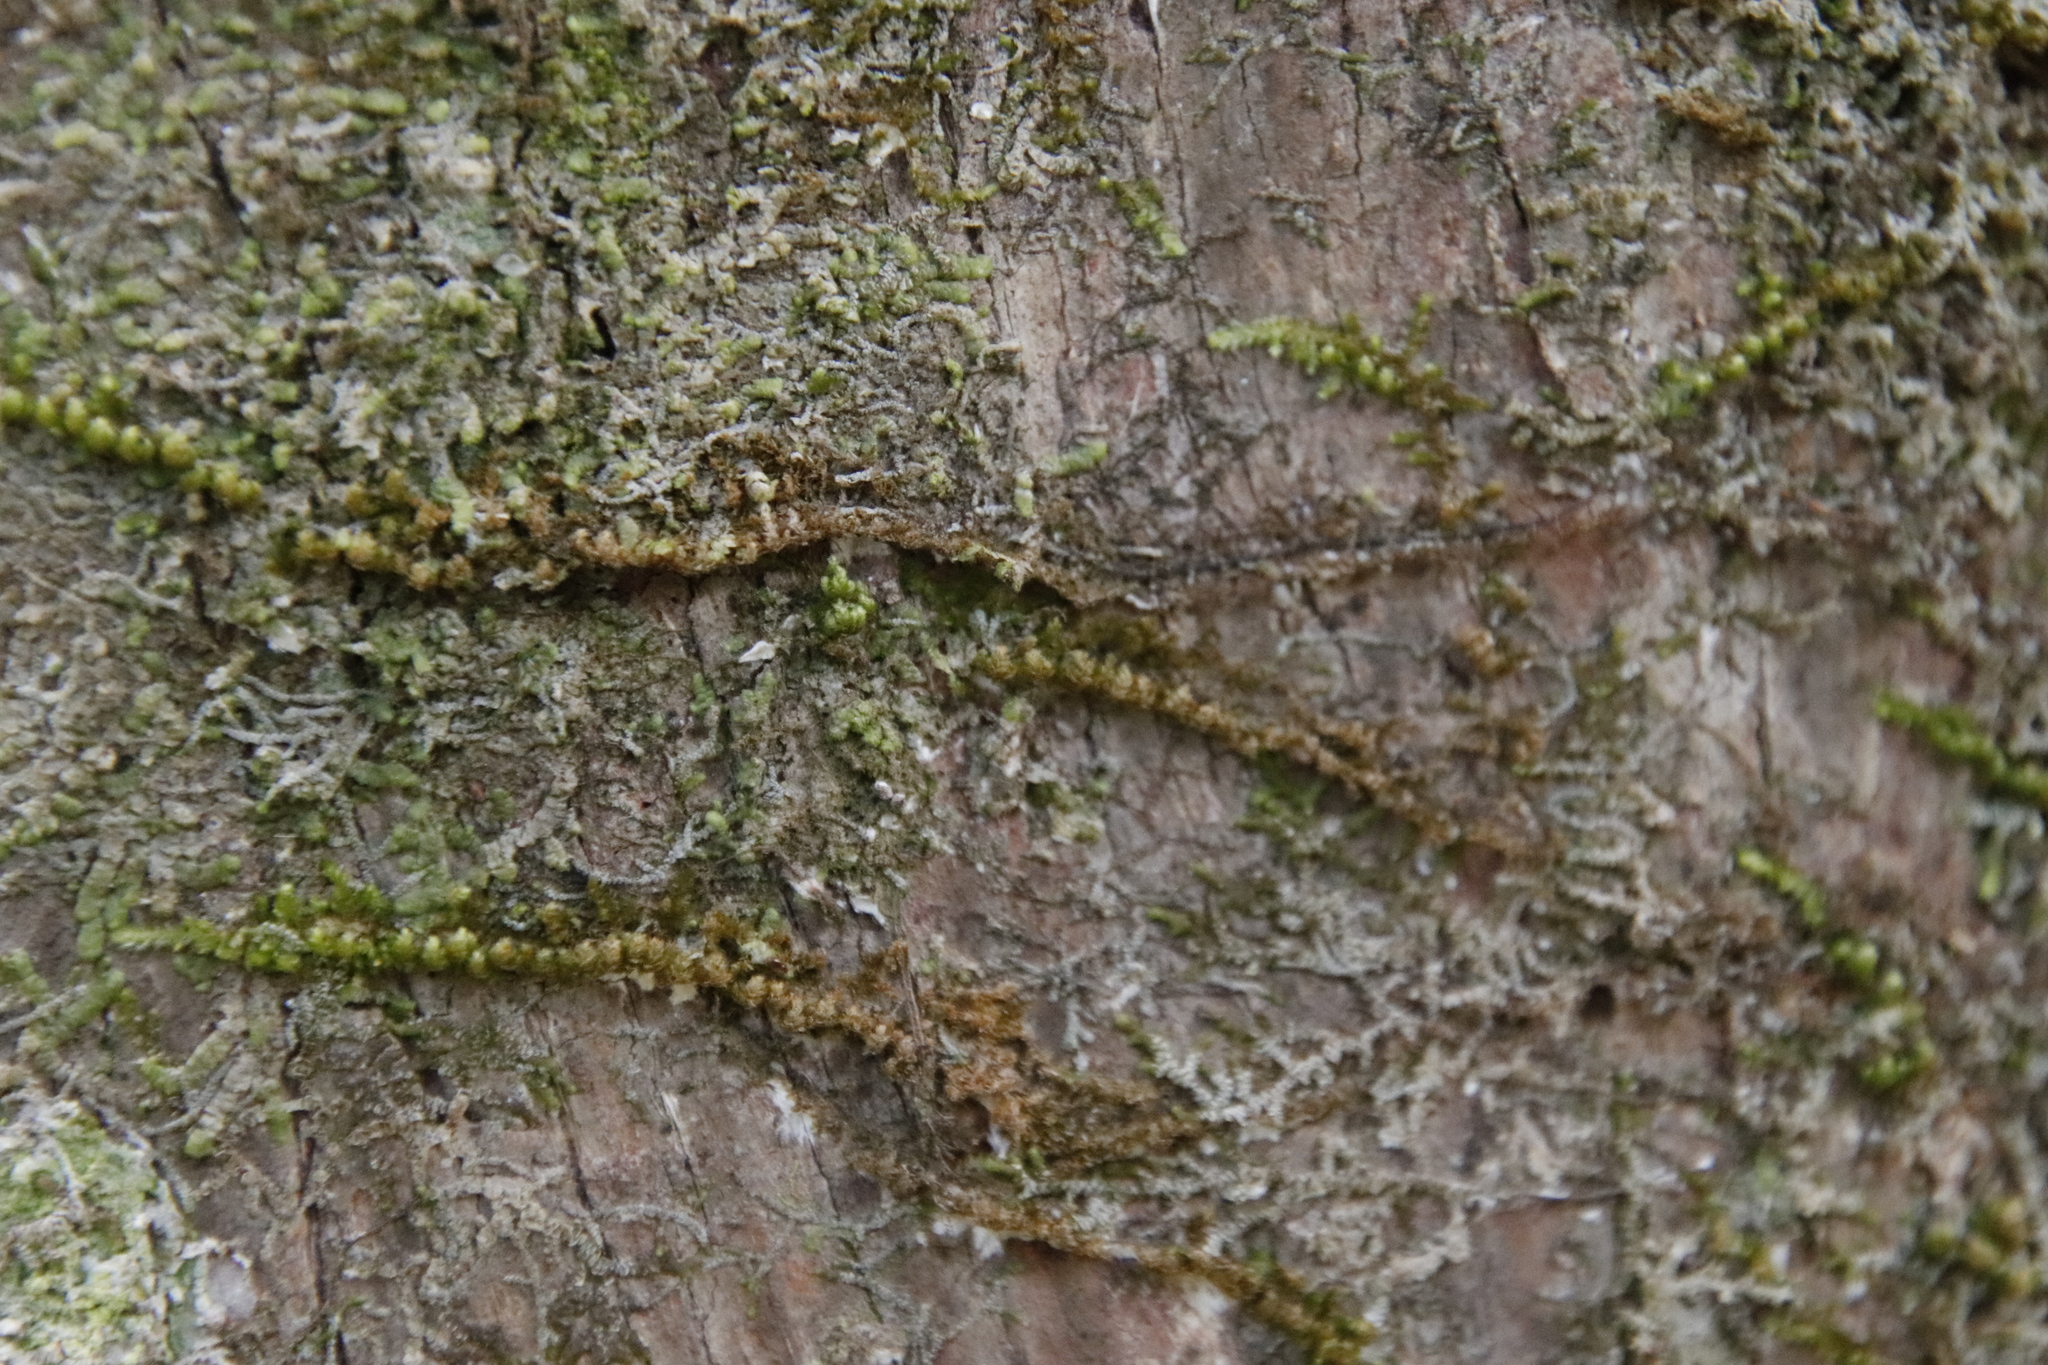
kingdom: Plantae
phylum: Bryophyta
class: Bryopsida
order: Hypnales
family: Neckeraceae
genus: Leptodon
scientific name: Leptodon smithii
